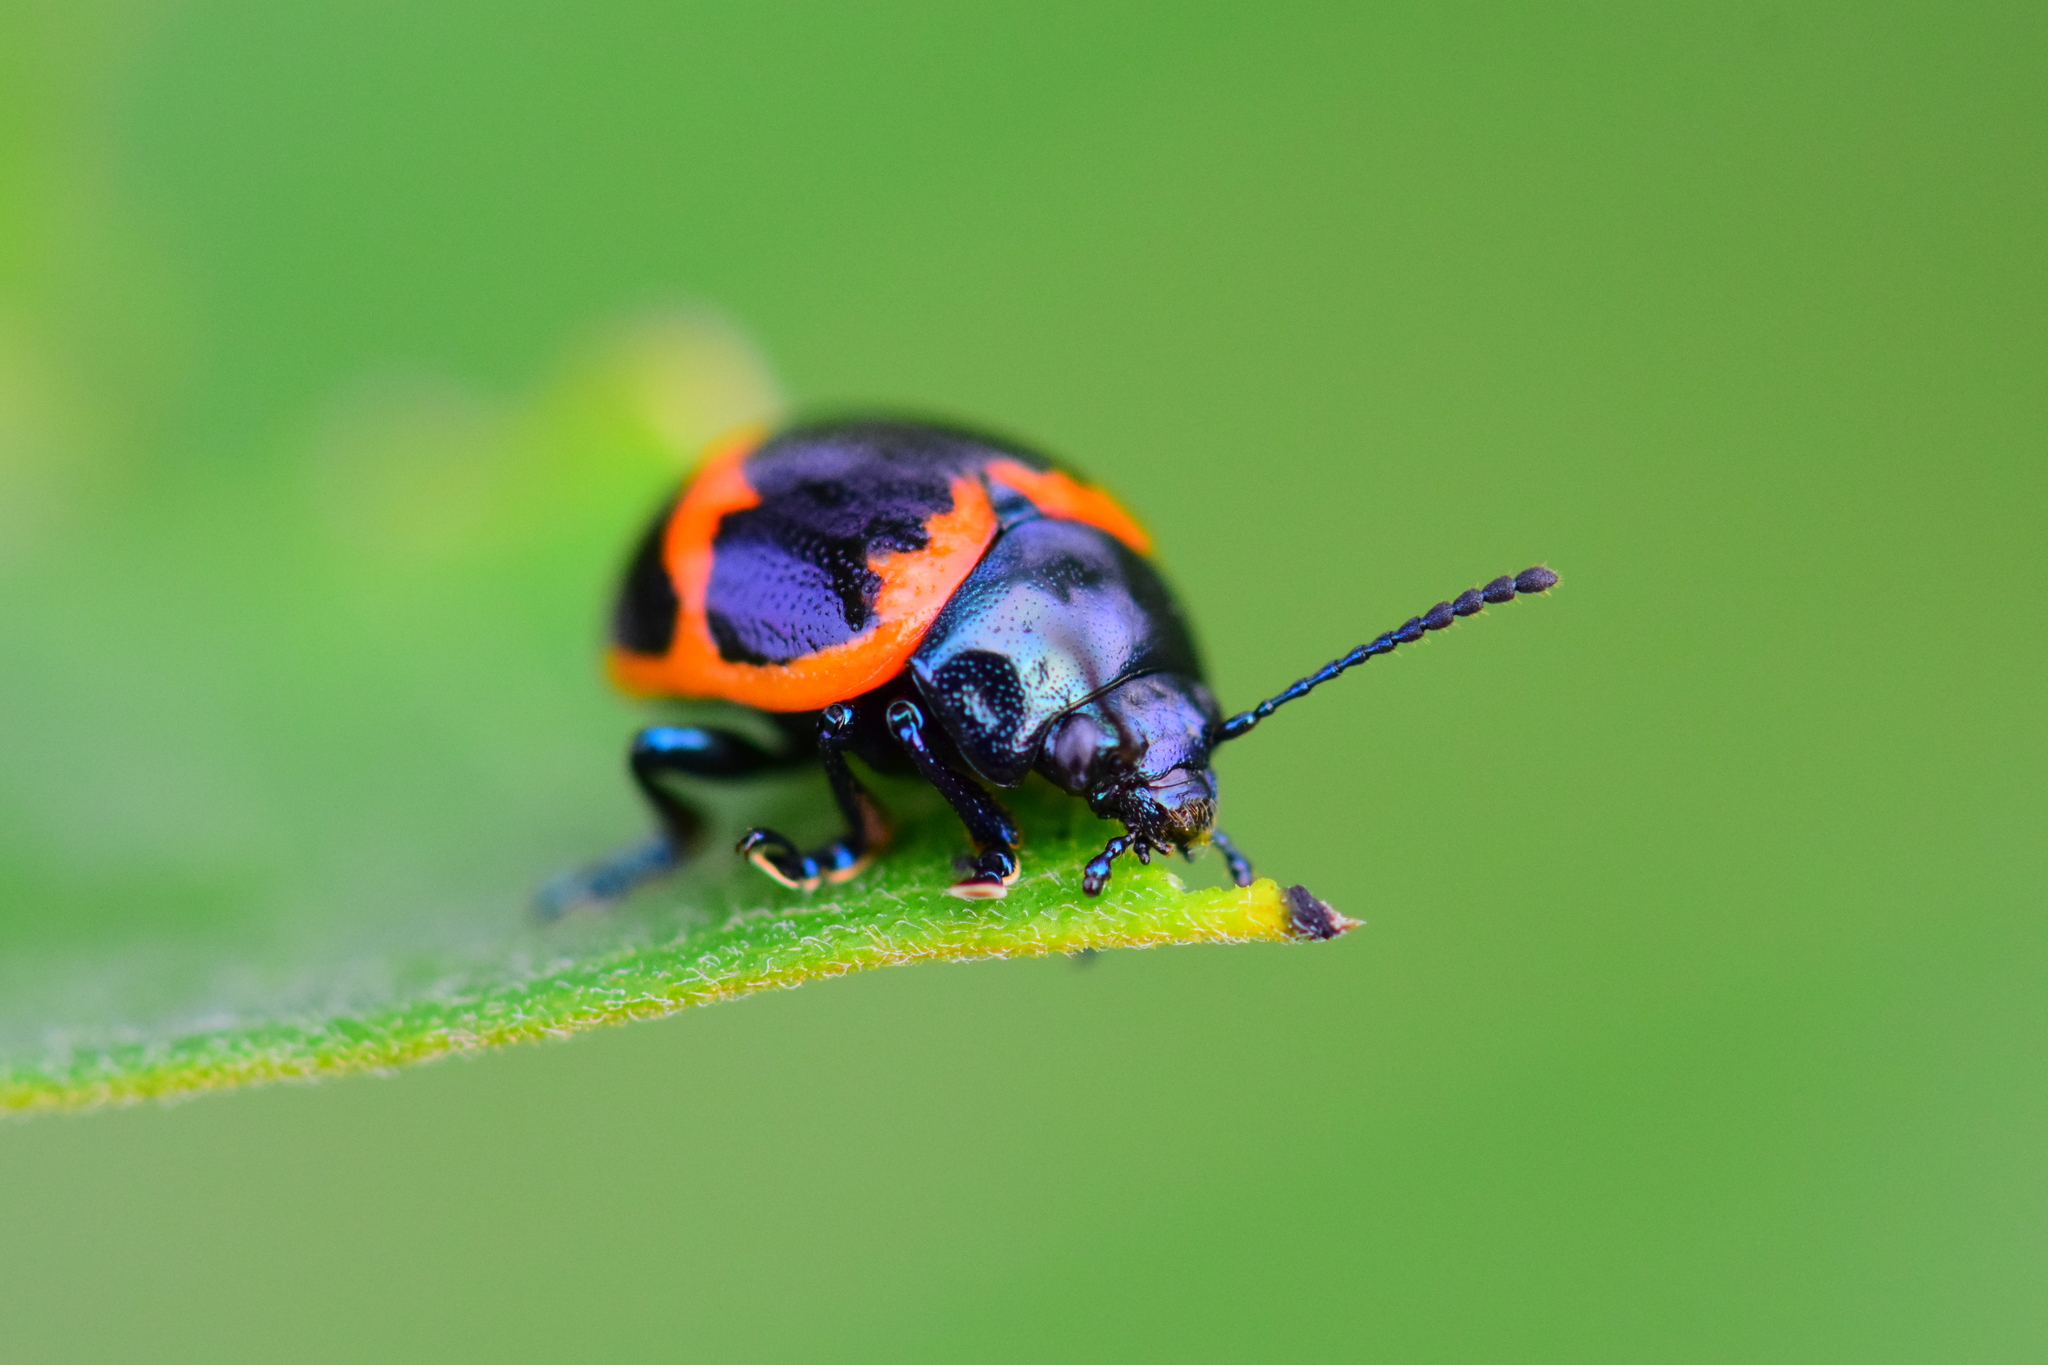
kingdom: Animalia
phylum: Arthropoda
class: Insecta
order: Coleoptera
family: Chrysomelidae
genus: Labidomera
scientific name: Labidomera clivicollis
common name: Swamp milkweed leaf beetle
